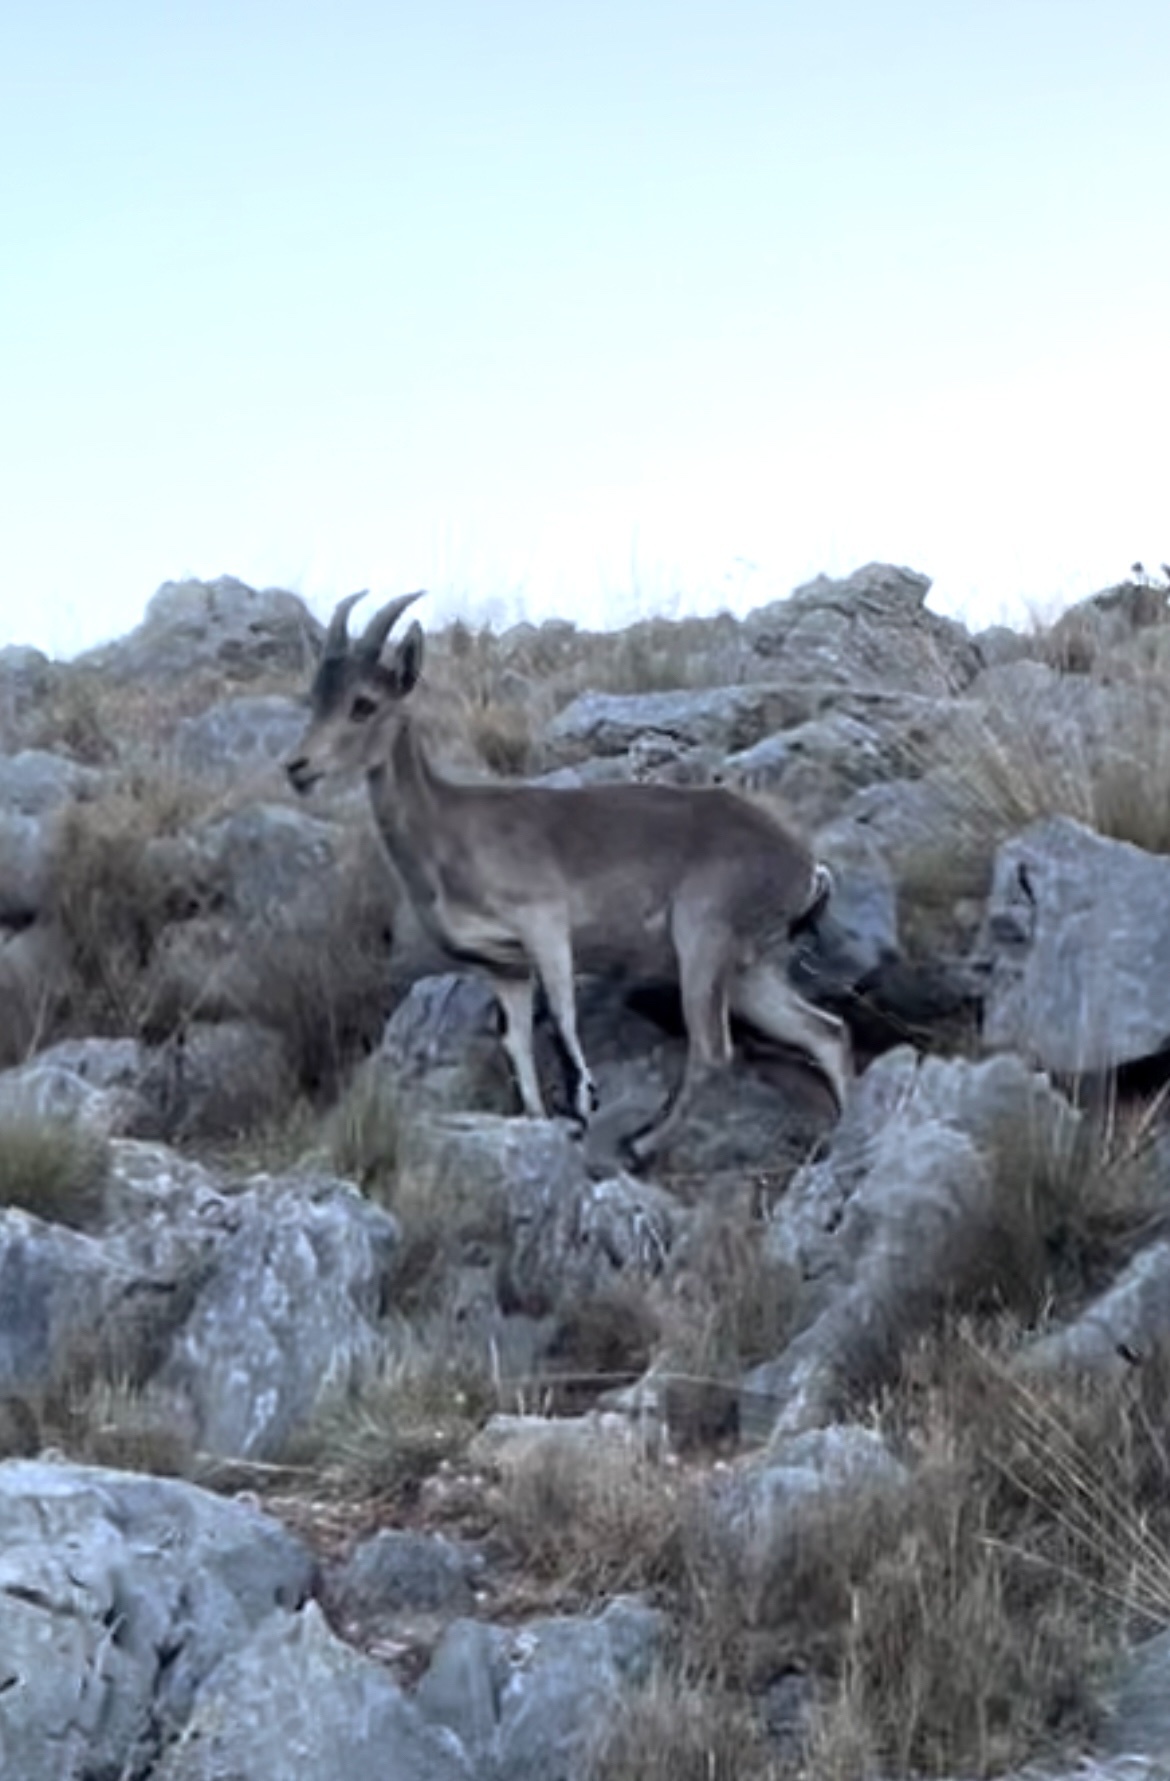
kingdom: Animalia
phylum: Chordata
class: Mammalia
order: Artiodactyla
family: Bovidae
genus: Capra
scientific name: Capra pyrenaica
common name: Spanish ibex
